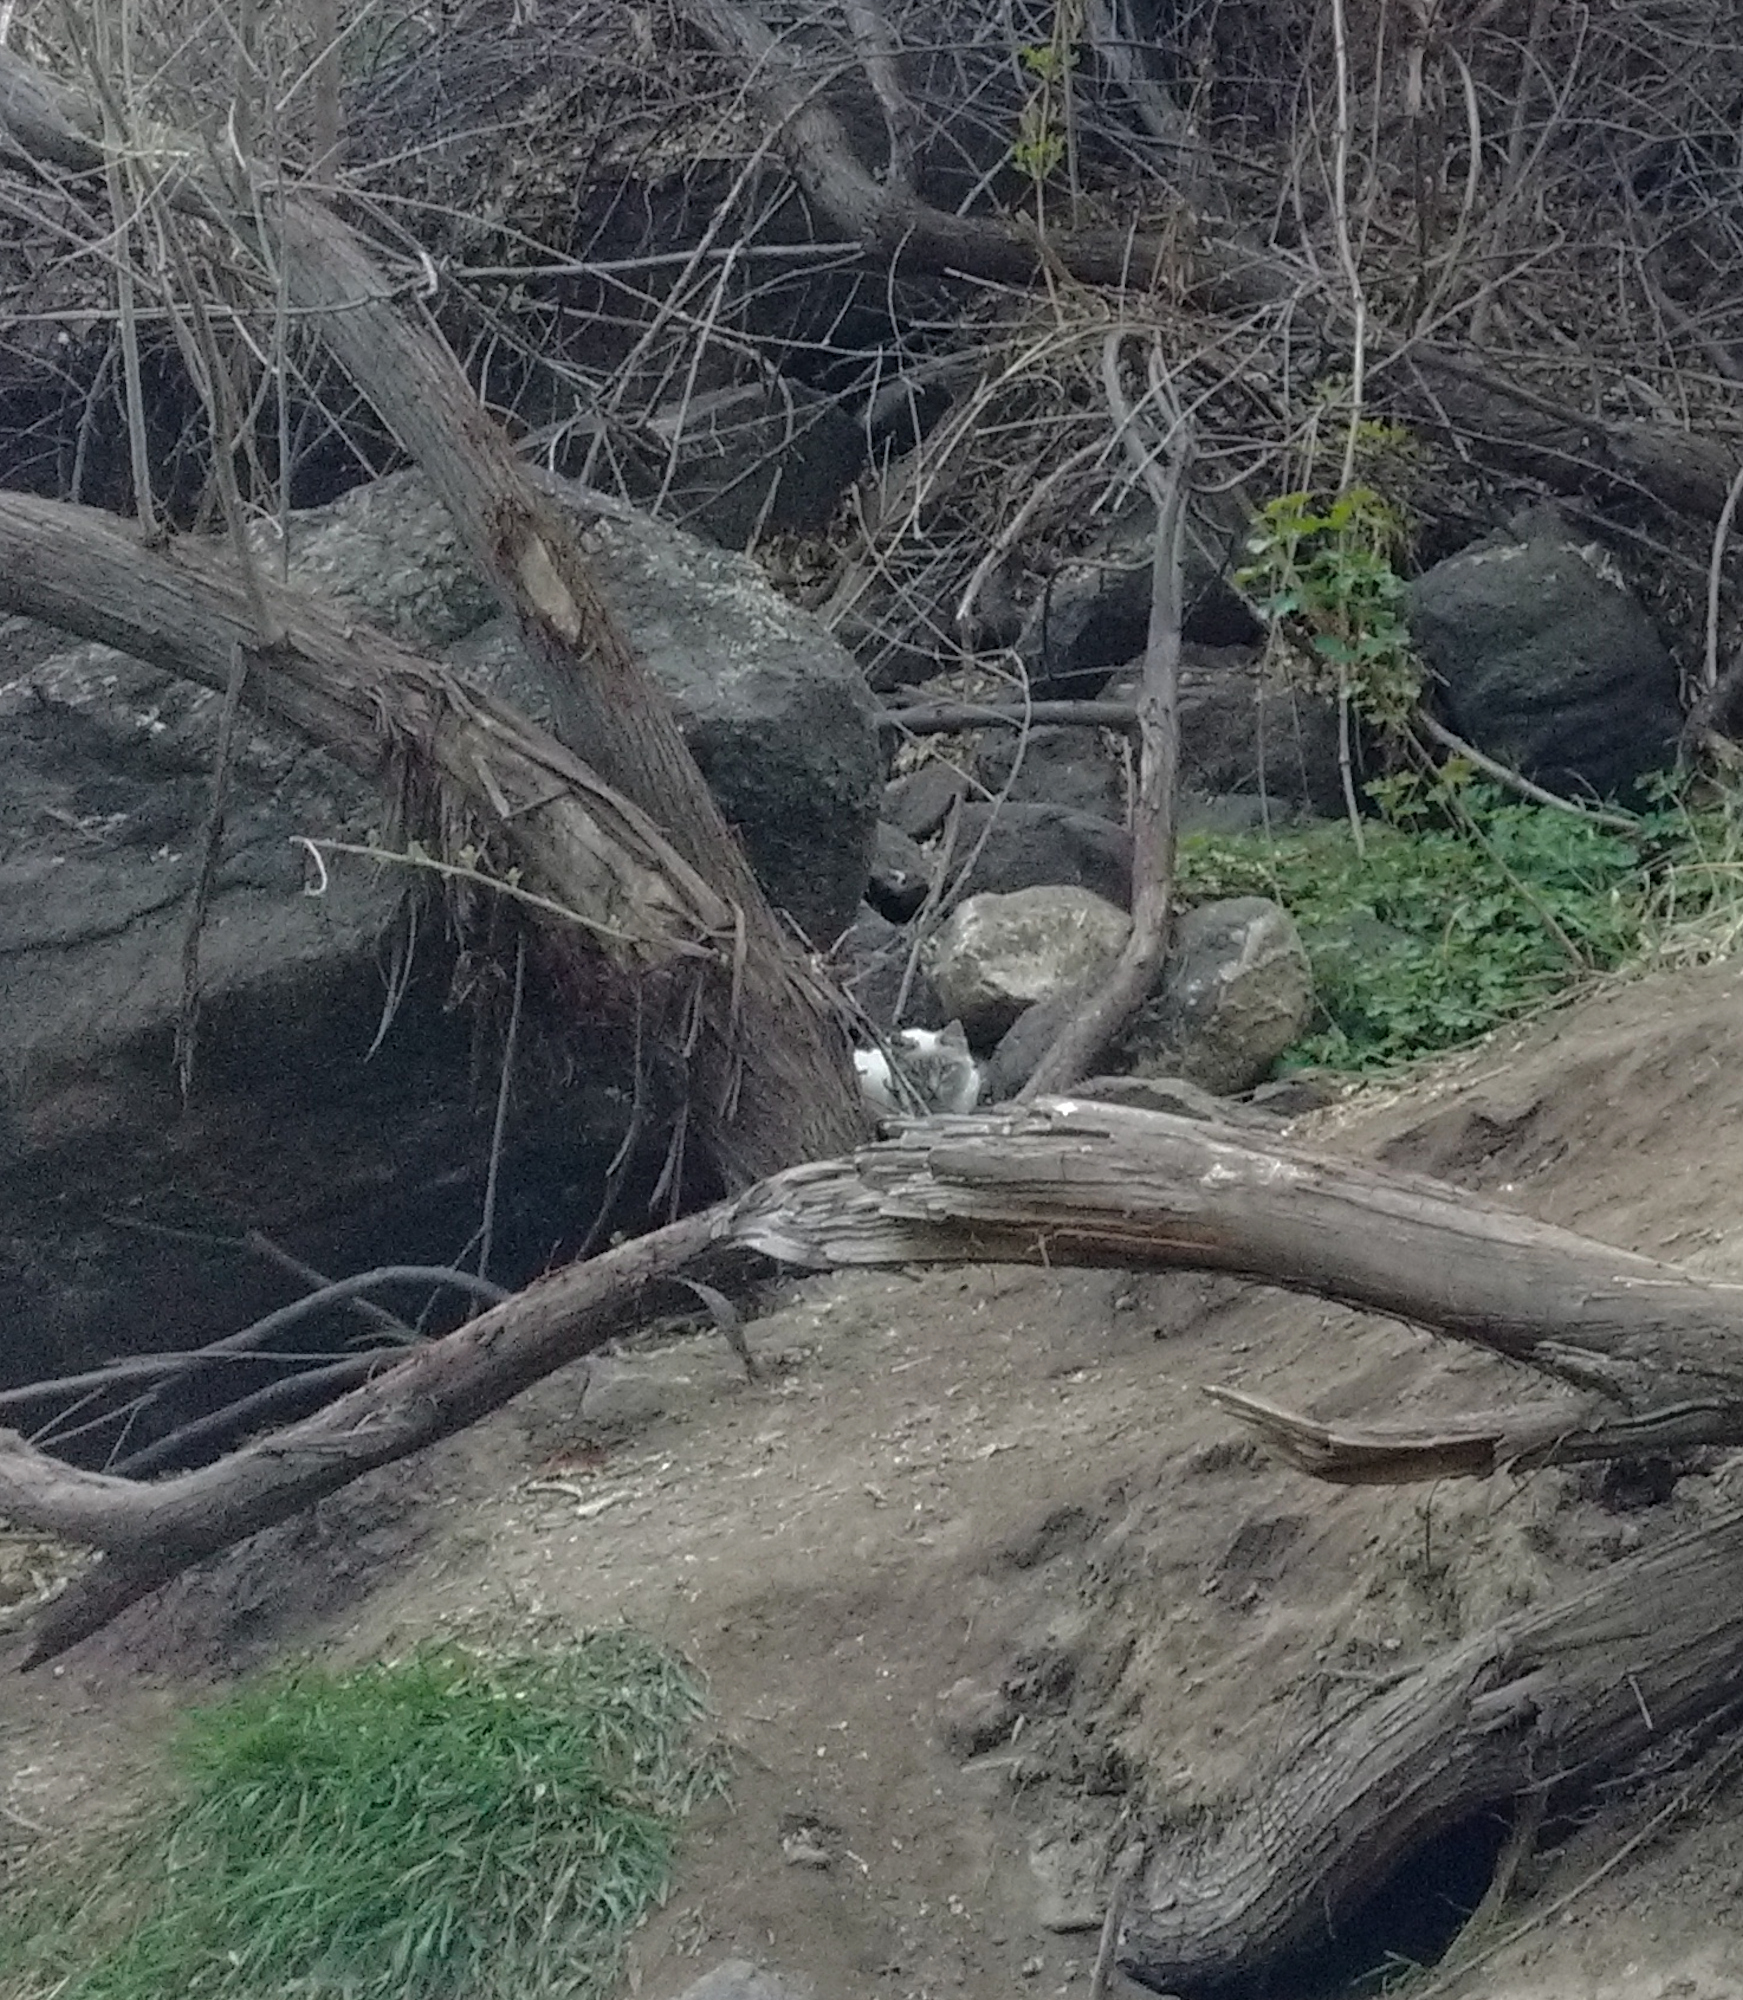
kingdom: Animalia
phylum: Chordata
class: Mammalia
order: Carnivora
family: Felidae
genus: Felis
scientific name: Felis catus
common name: Domestic cat
